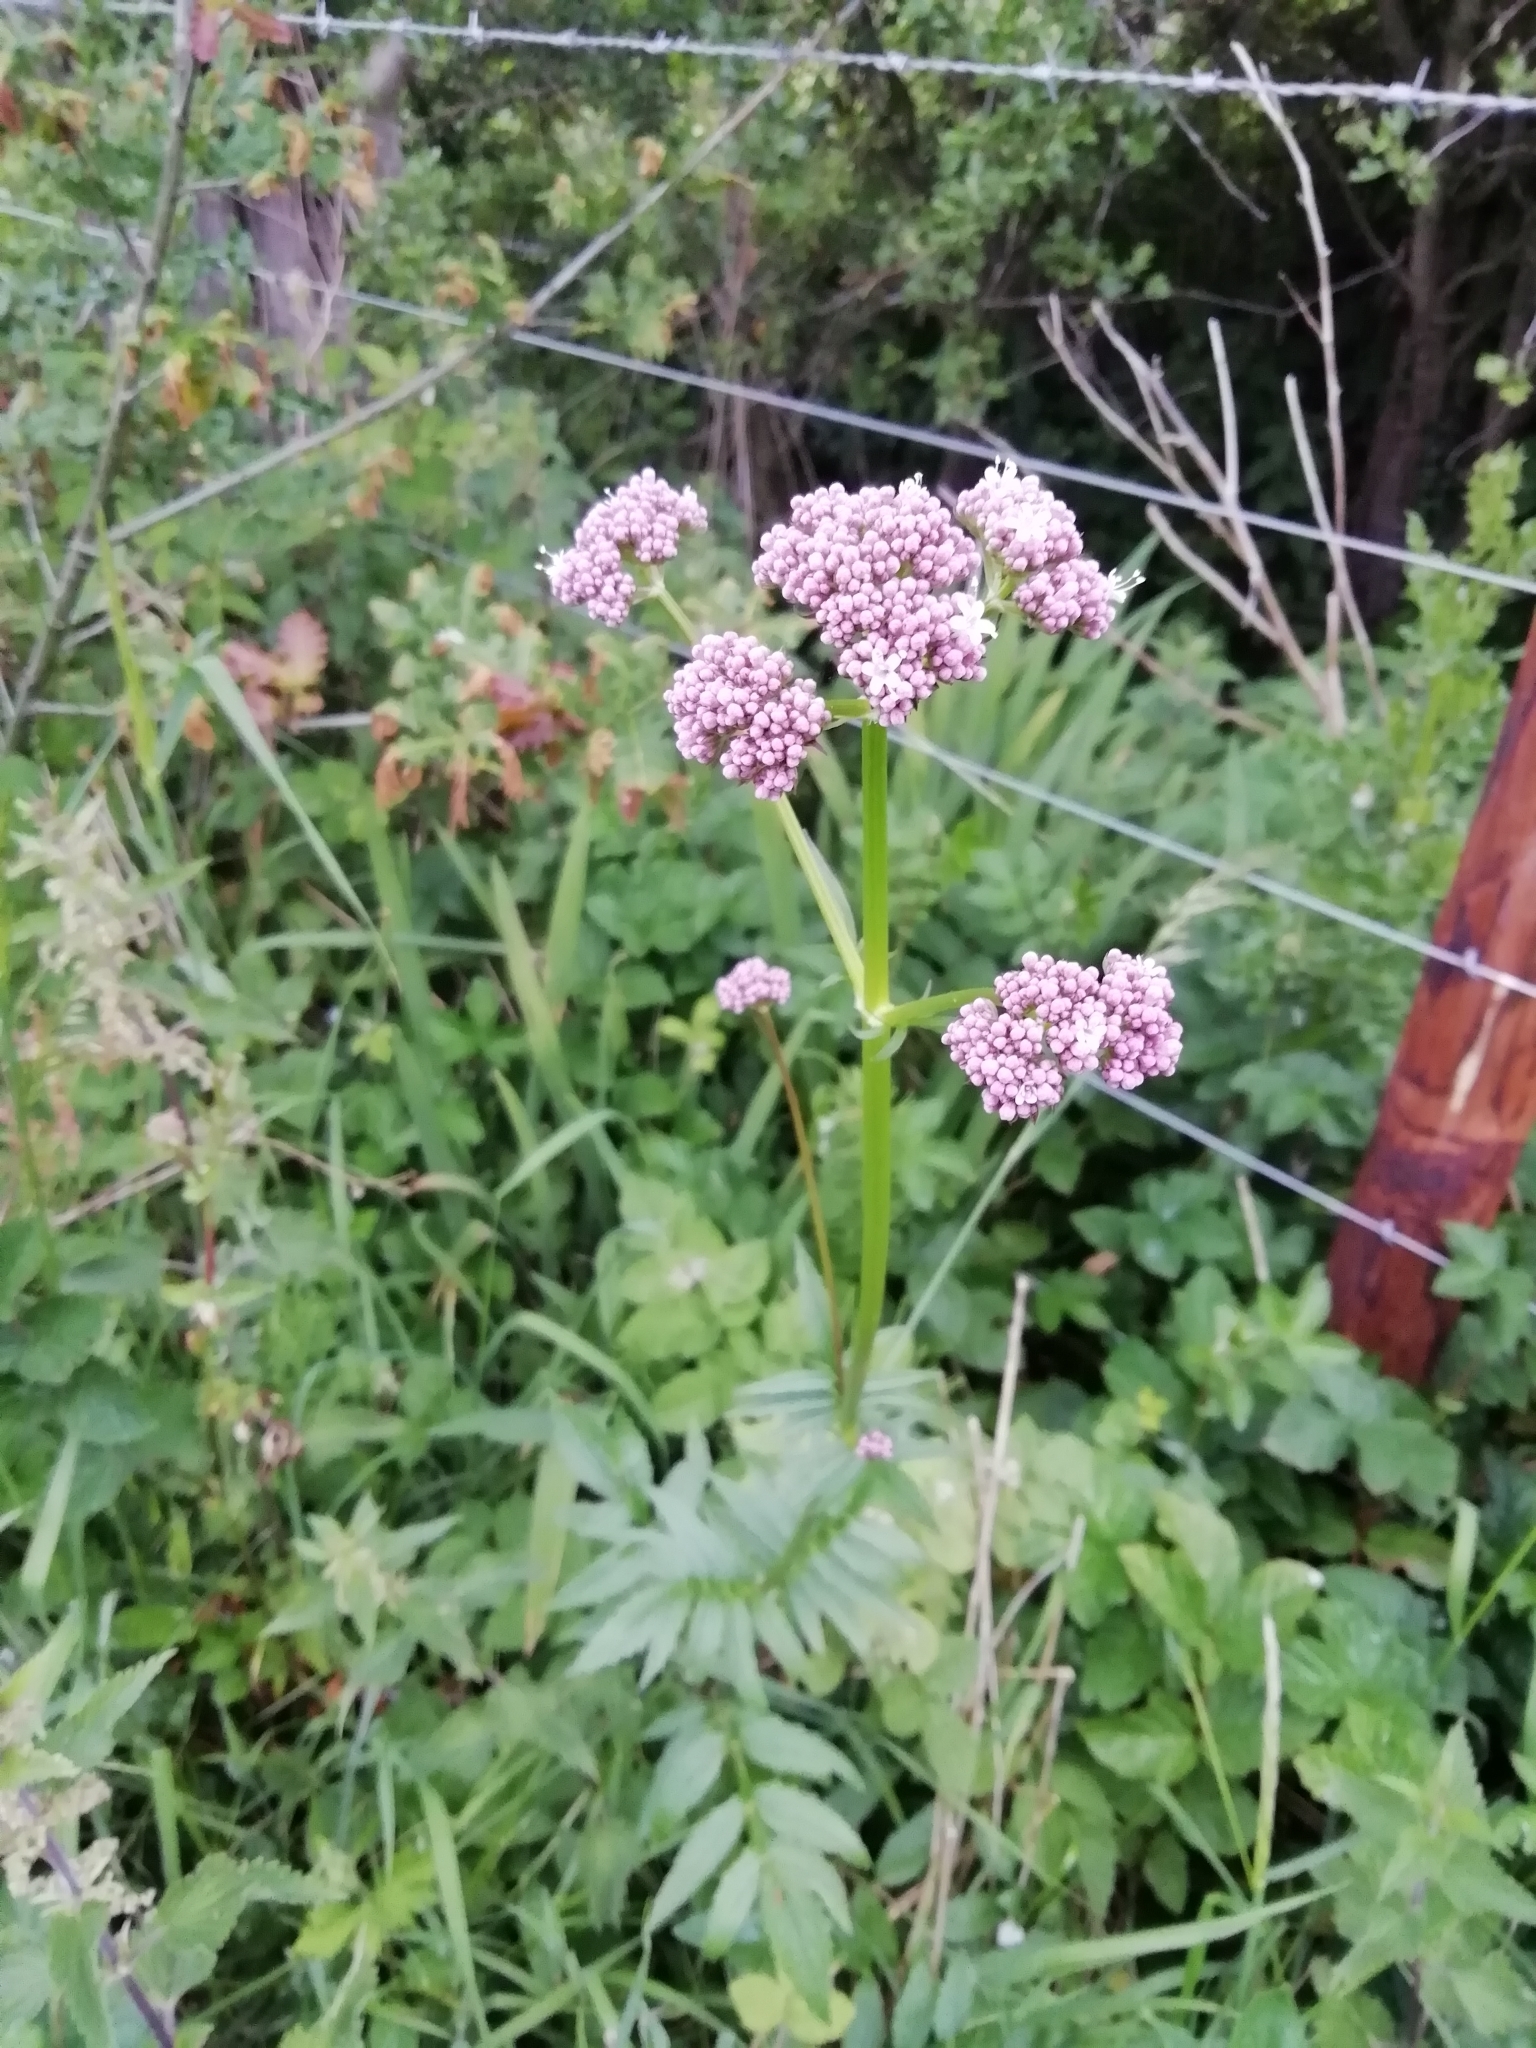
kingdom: Plantae
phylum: Tracheophyta
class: Magnoliopsida
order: Dipsacales
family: Caprifoliaceae
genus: Valeriana
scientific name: Valeriana officinalis
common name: Common valerian
